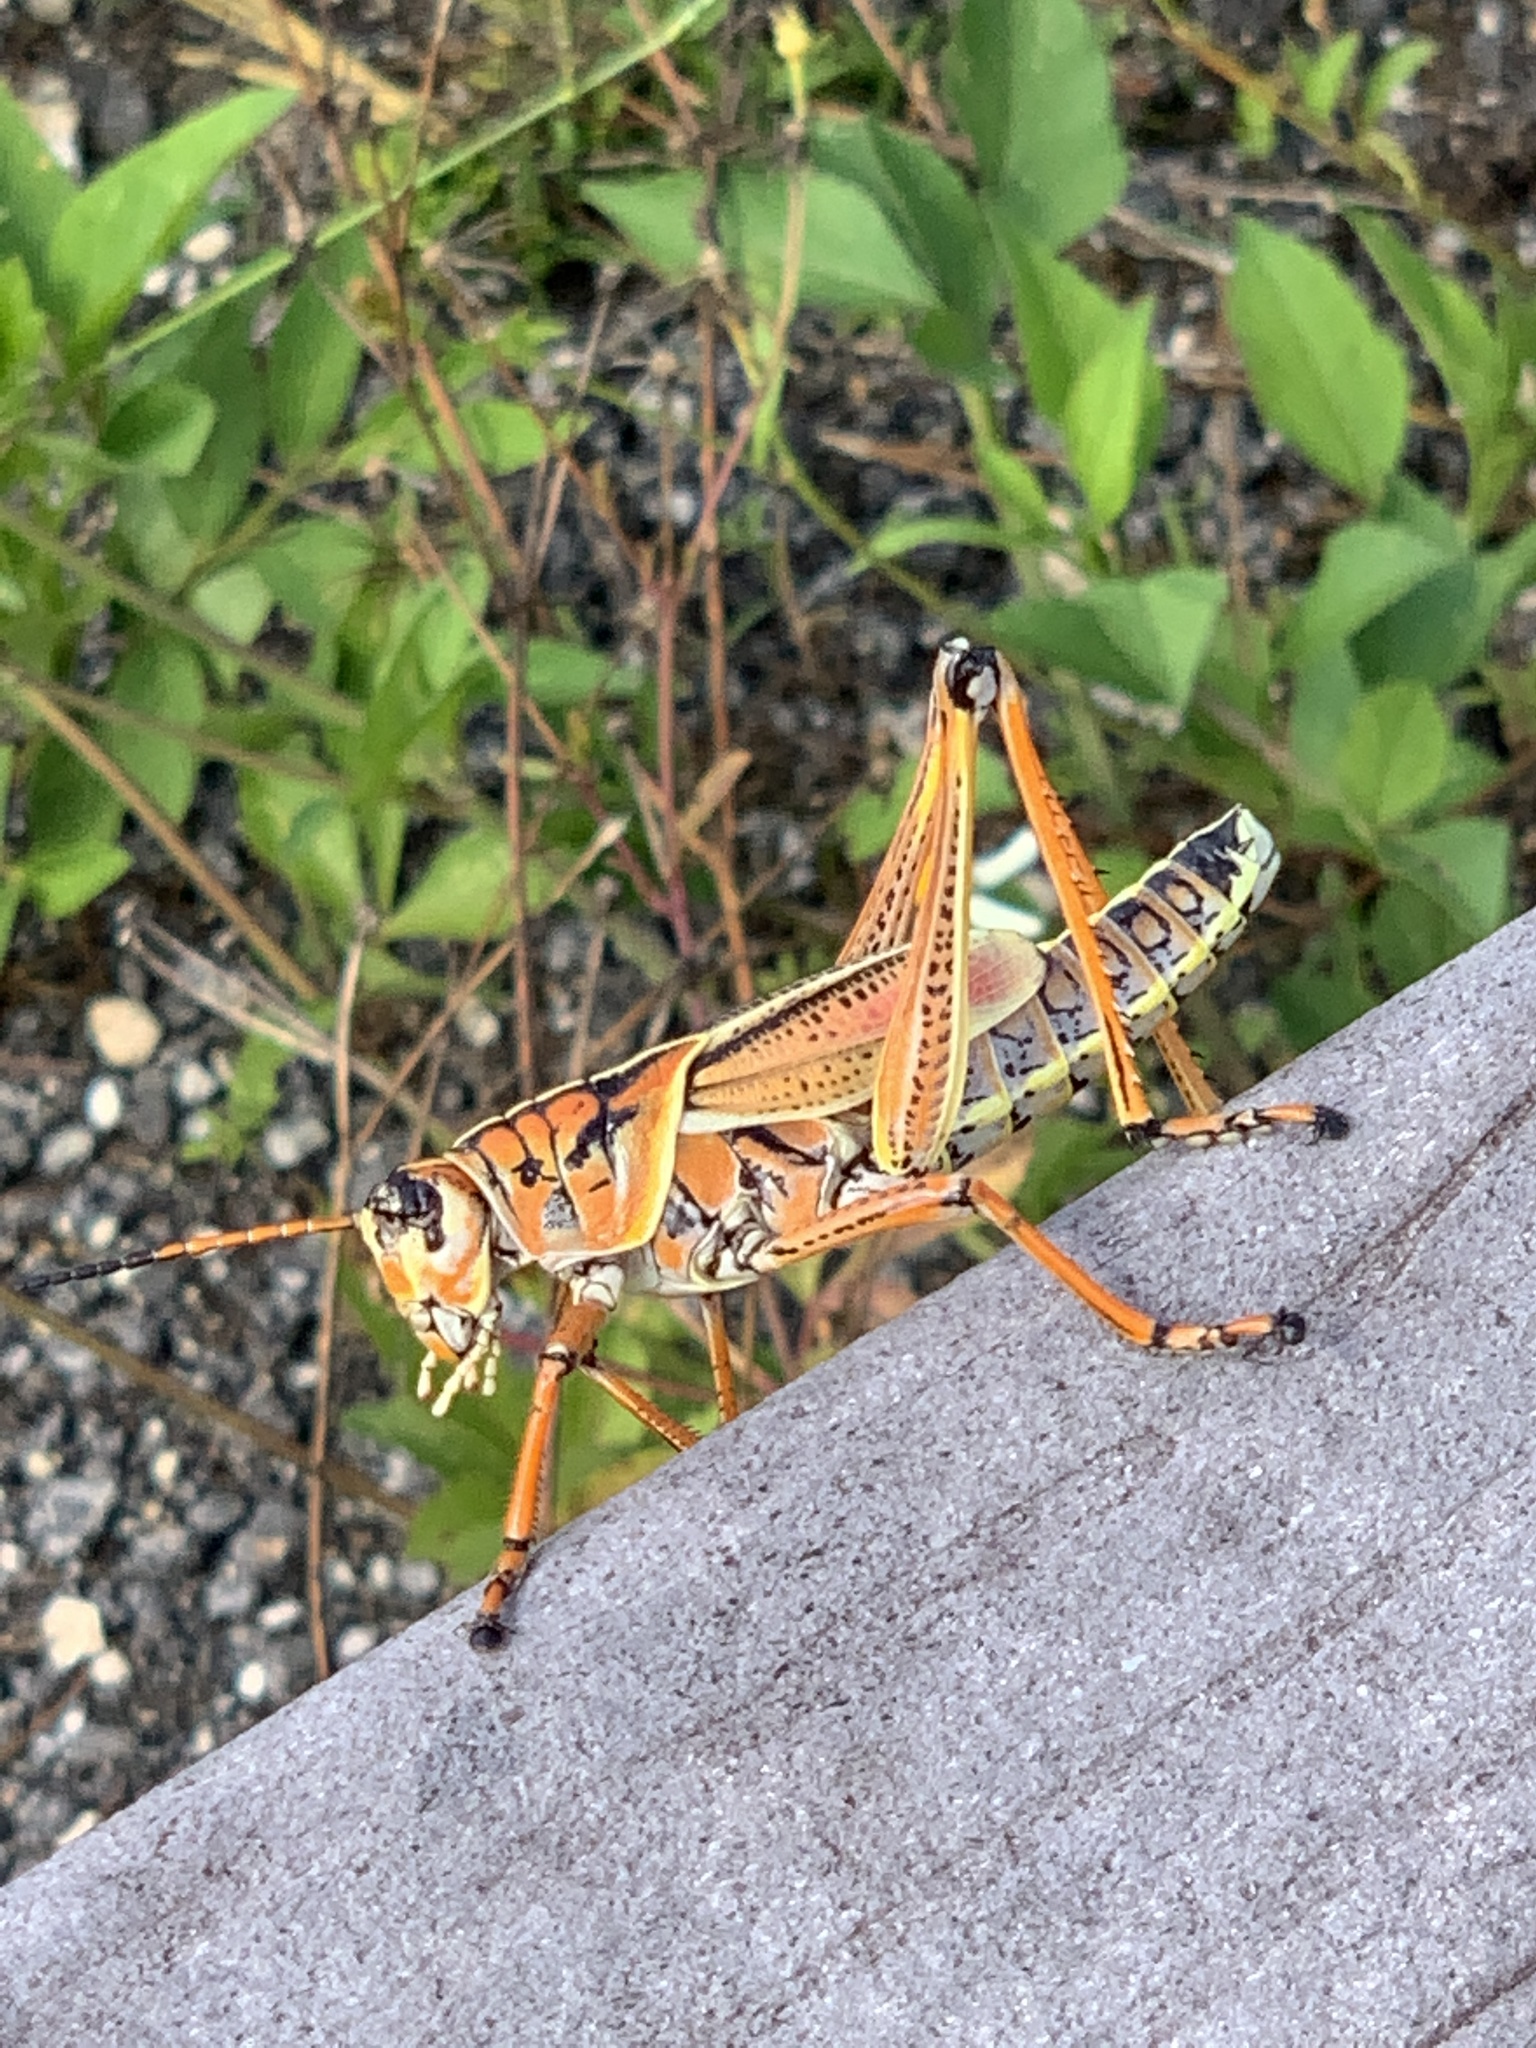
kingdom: Animalia
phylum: Arthropoda
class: Insecta
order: Orthoptera
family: Romaleidae
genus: Romalea
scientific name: Romalea microptera
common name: Eastern lubber grasshopper
